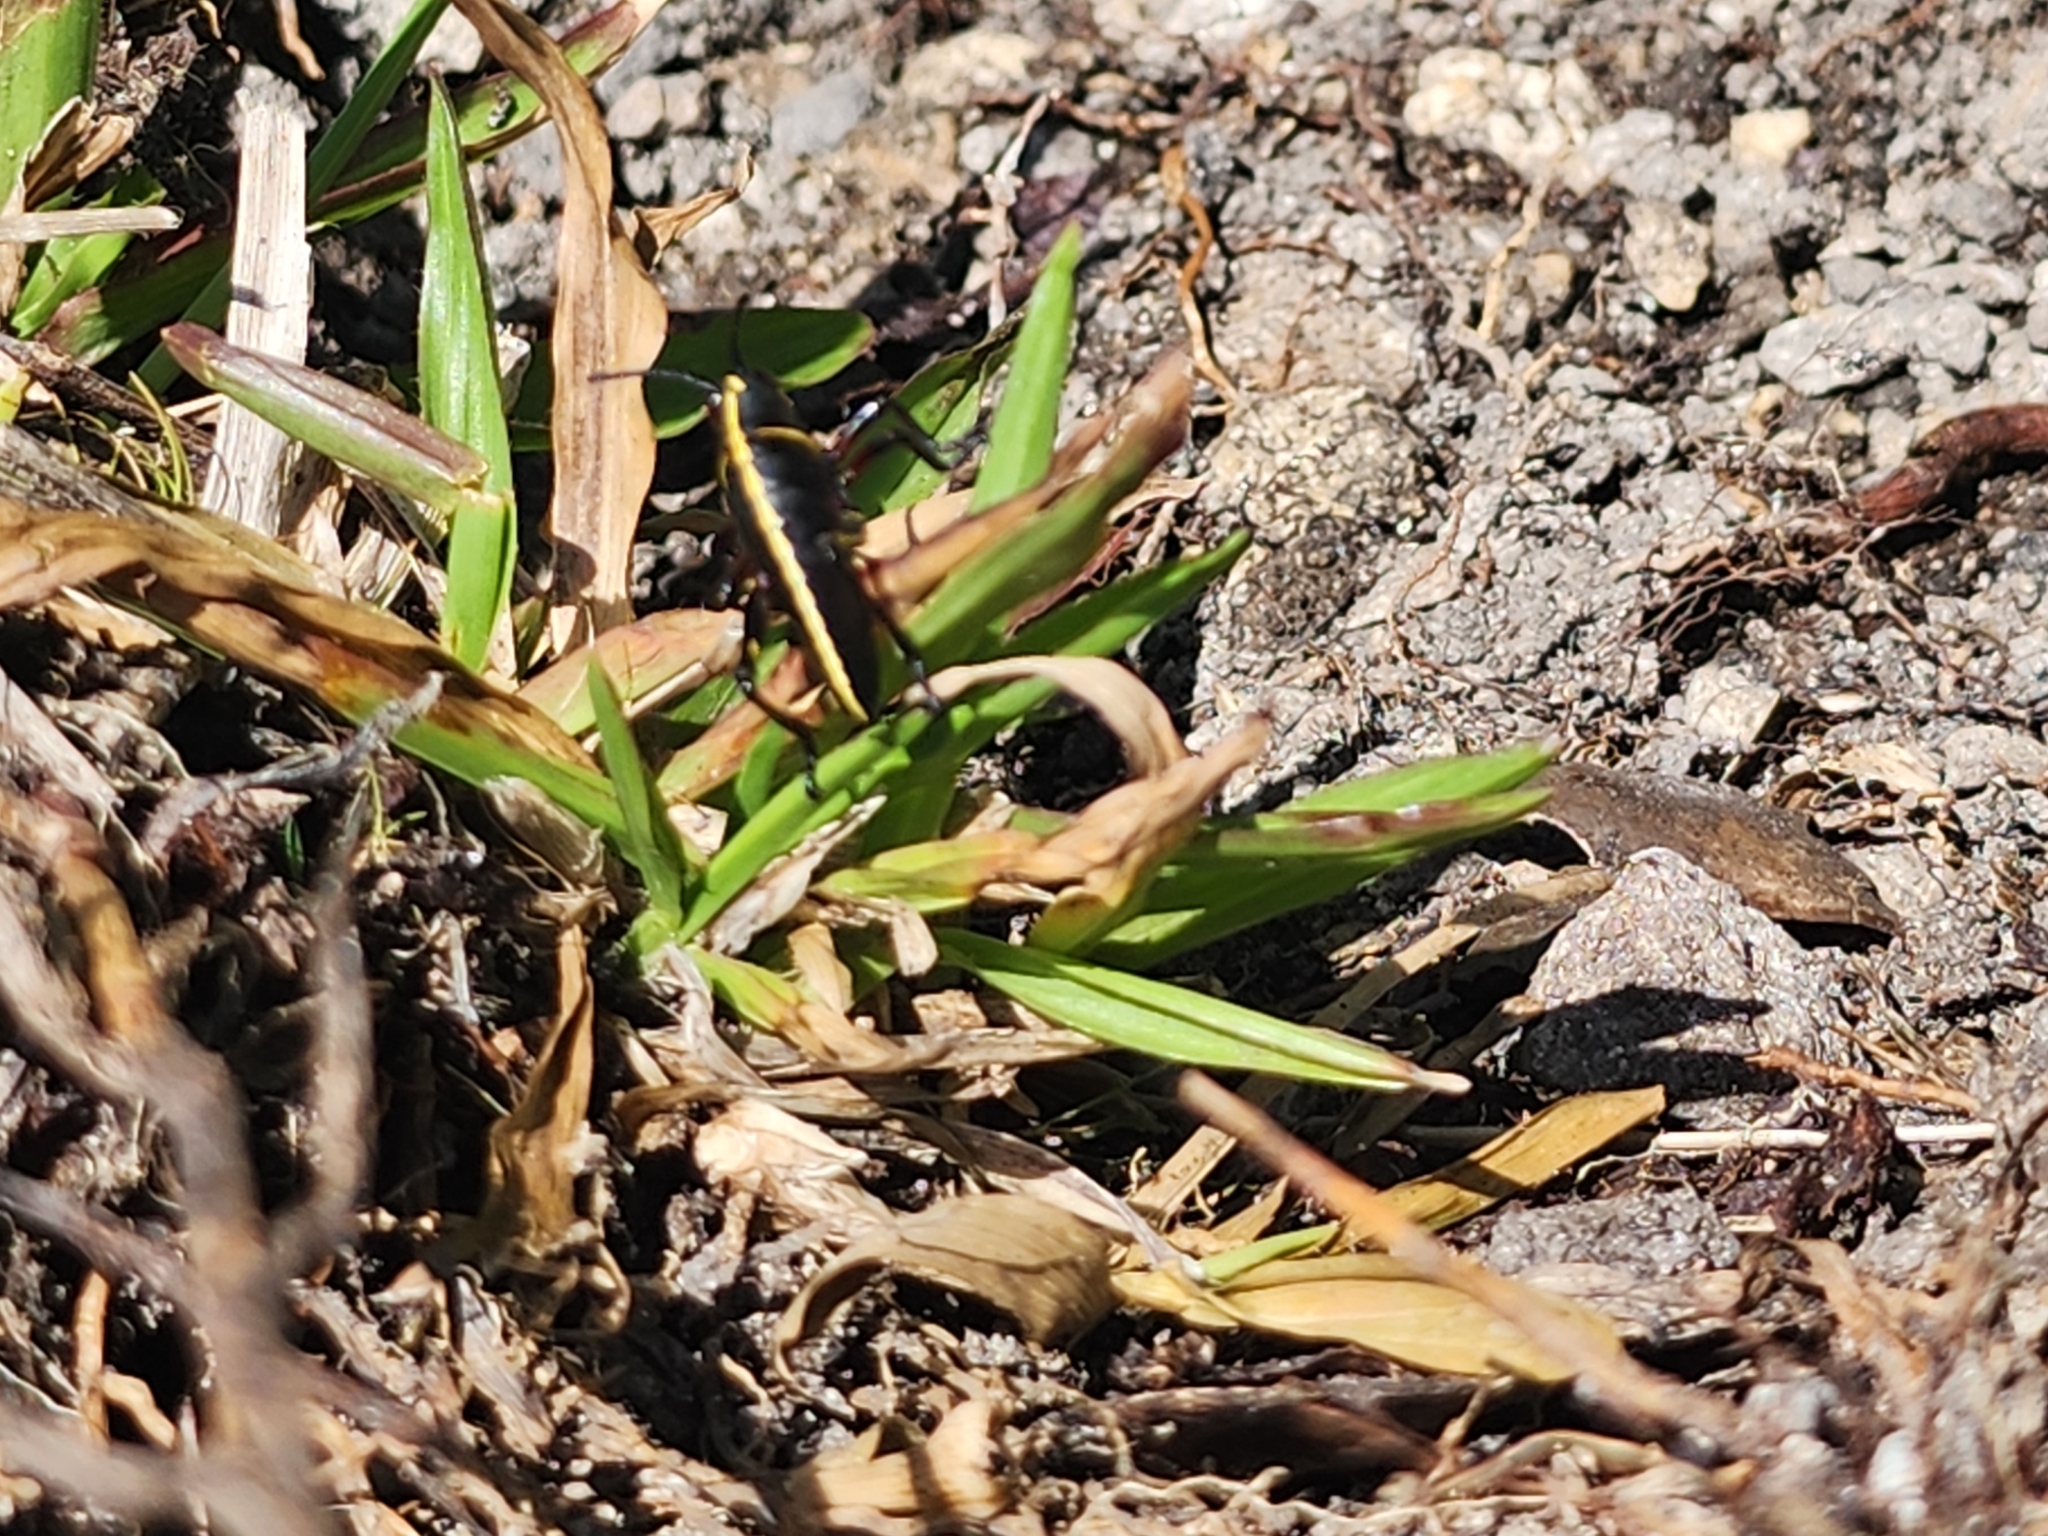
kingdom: Animalia
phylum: Arthropoda
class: Insecta
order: Orthoptera
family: Romaleidae
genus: Romalea
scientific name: Romalea microptera
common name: Eastern lubber grasshopper
